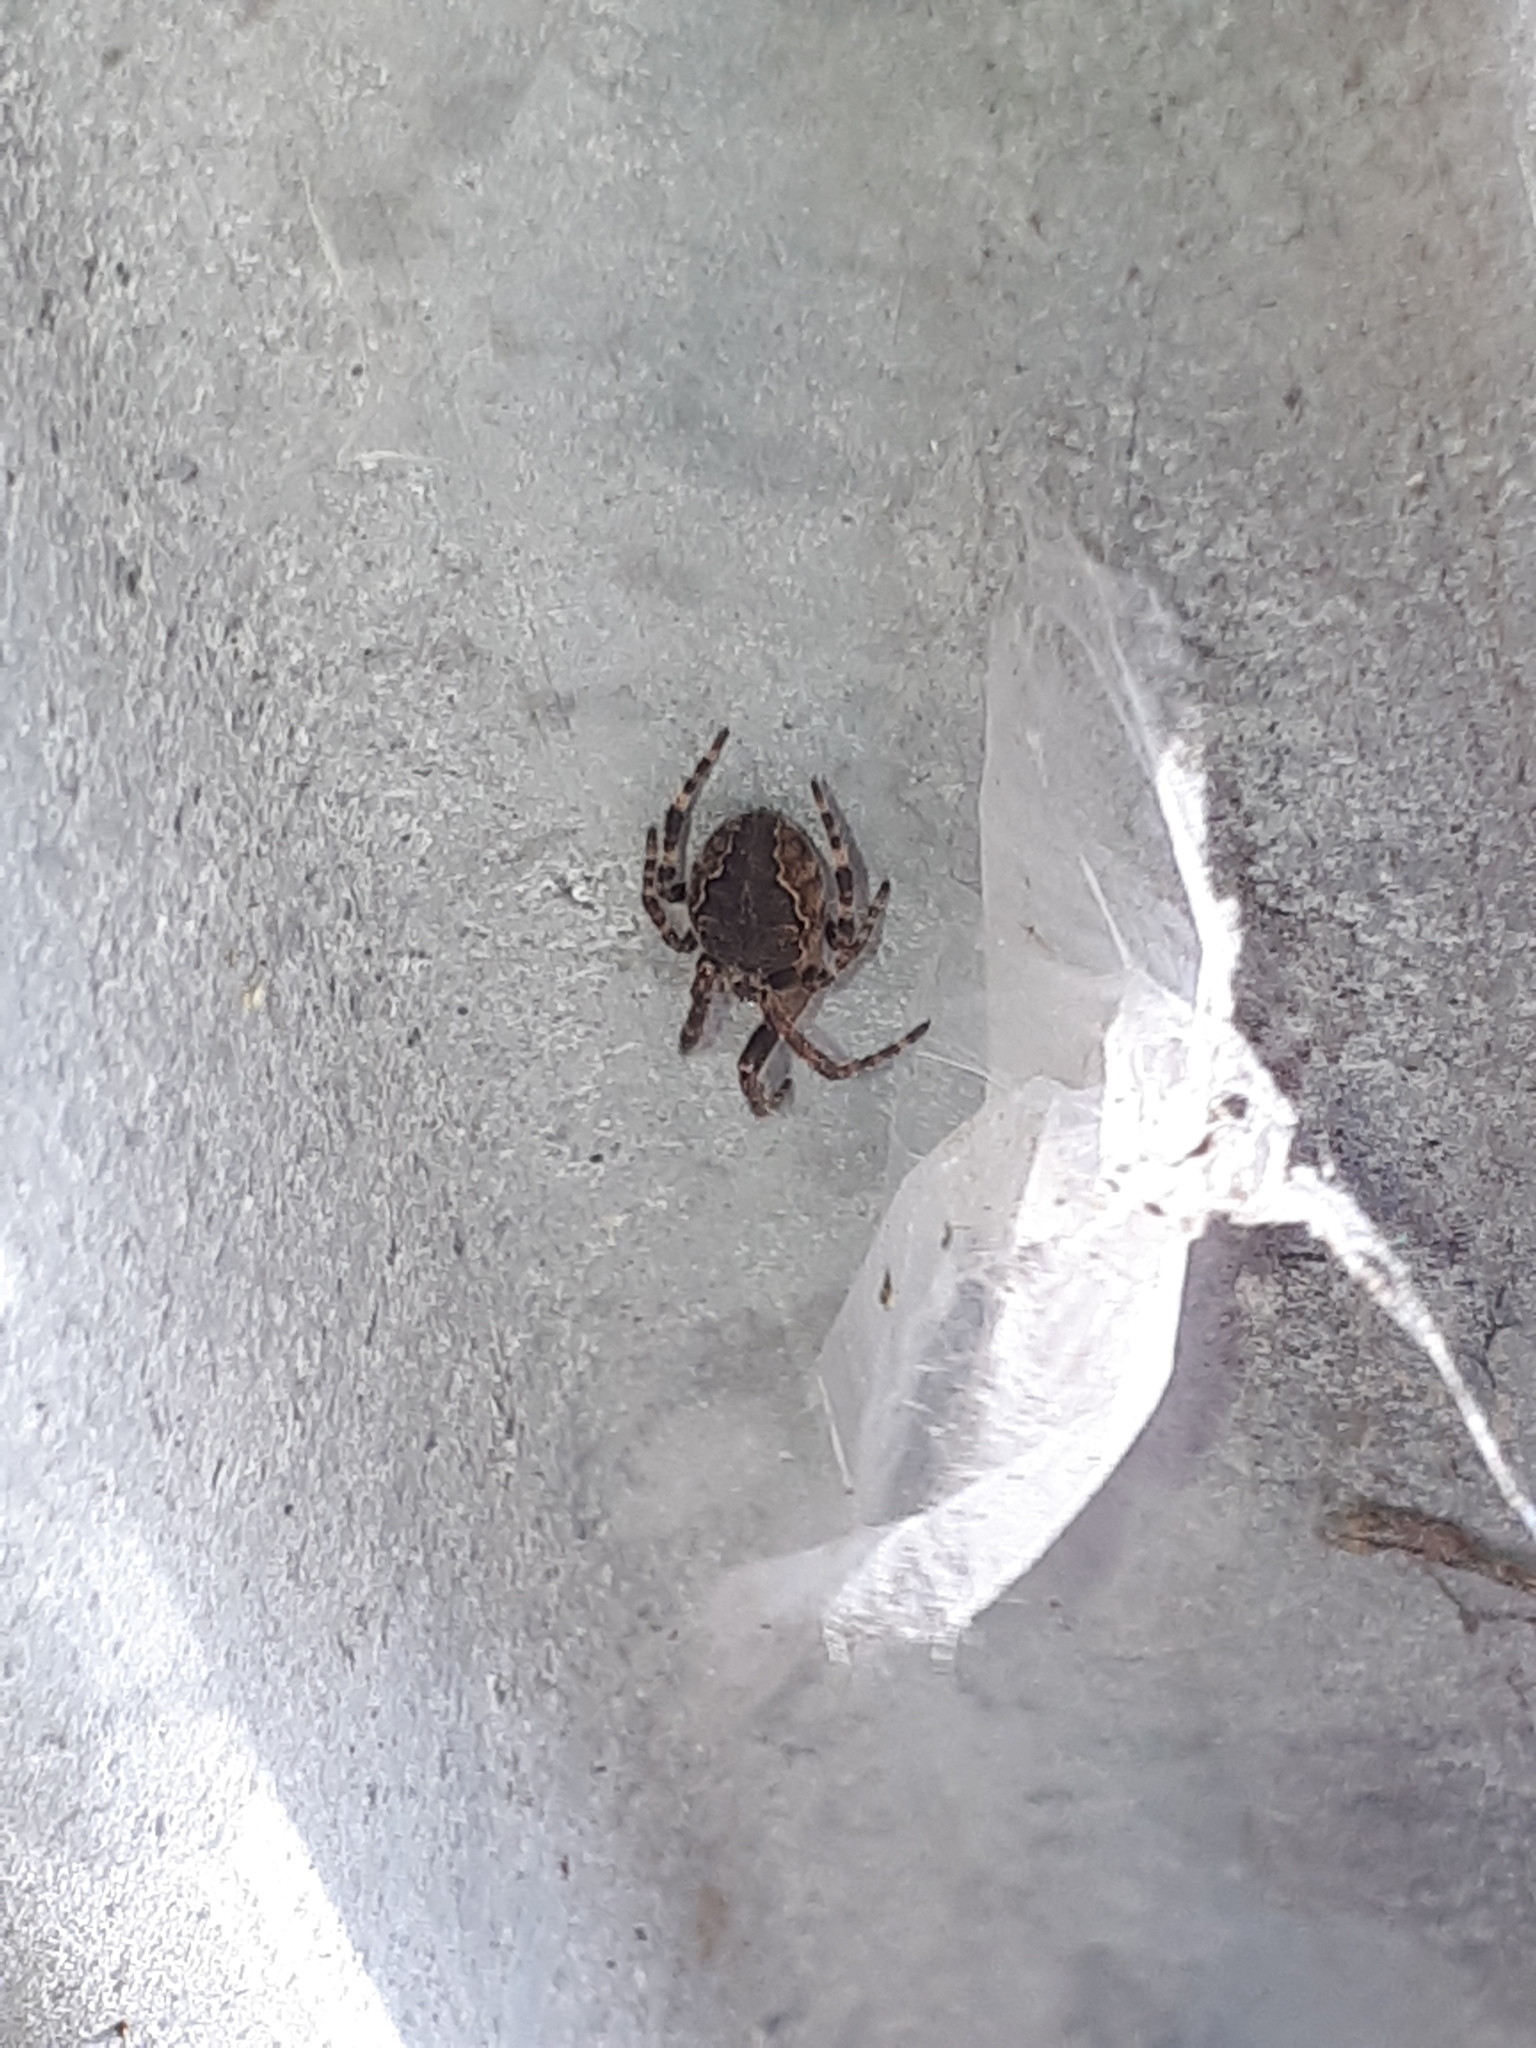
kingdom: Animalia
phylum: Arthropoda
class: Arachnida
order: Araneae
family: Araneidae
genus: Larinioides
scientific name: Larinioides sclopetarius
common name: Bridge orbweaver
